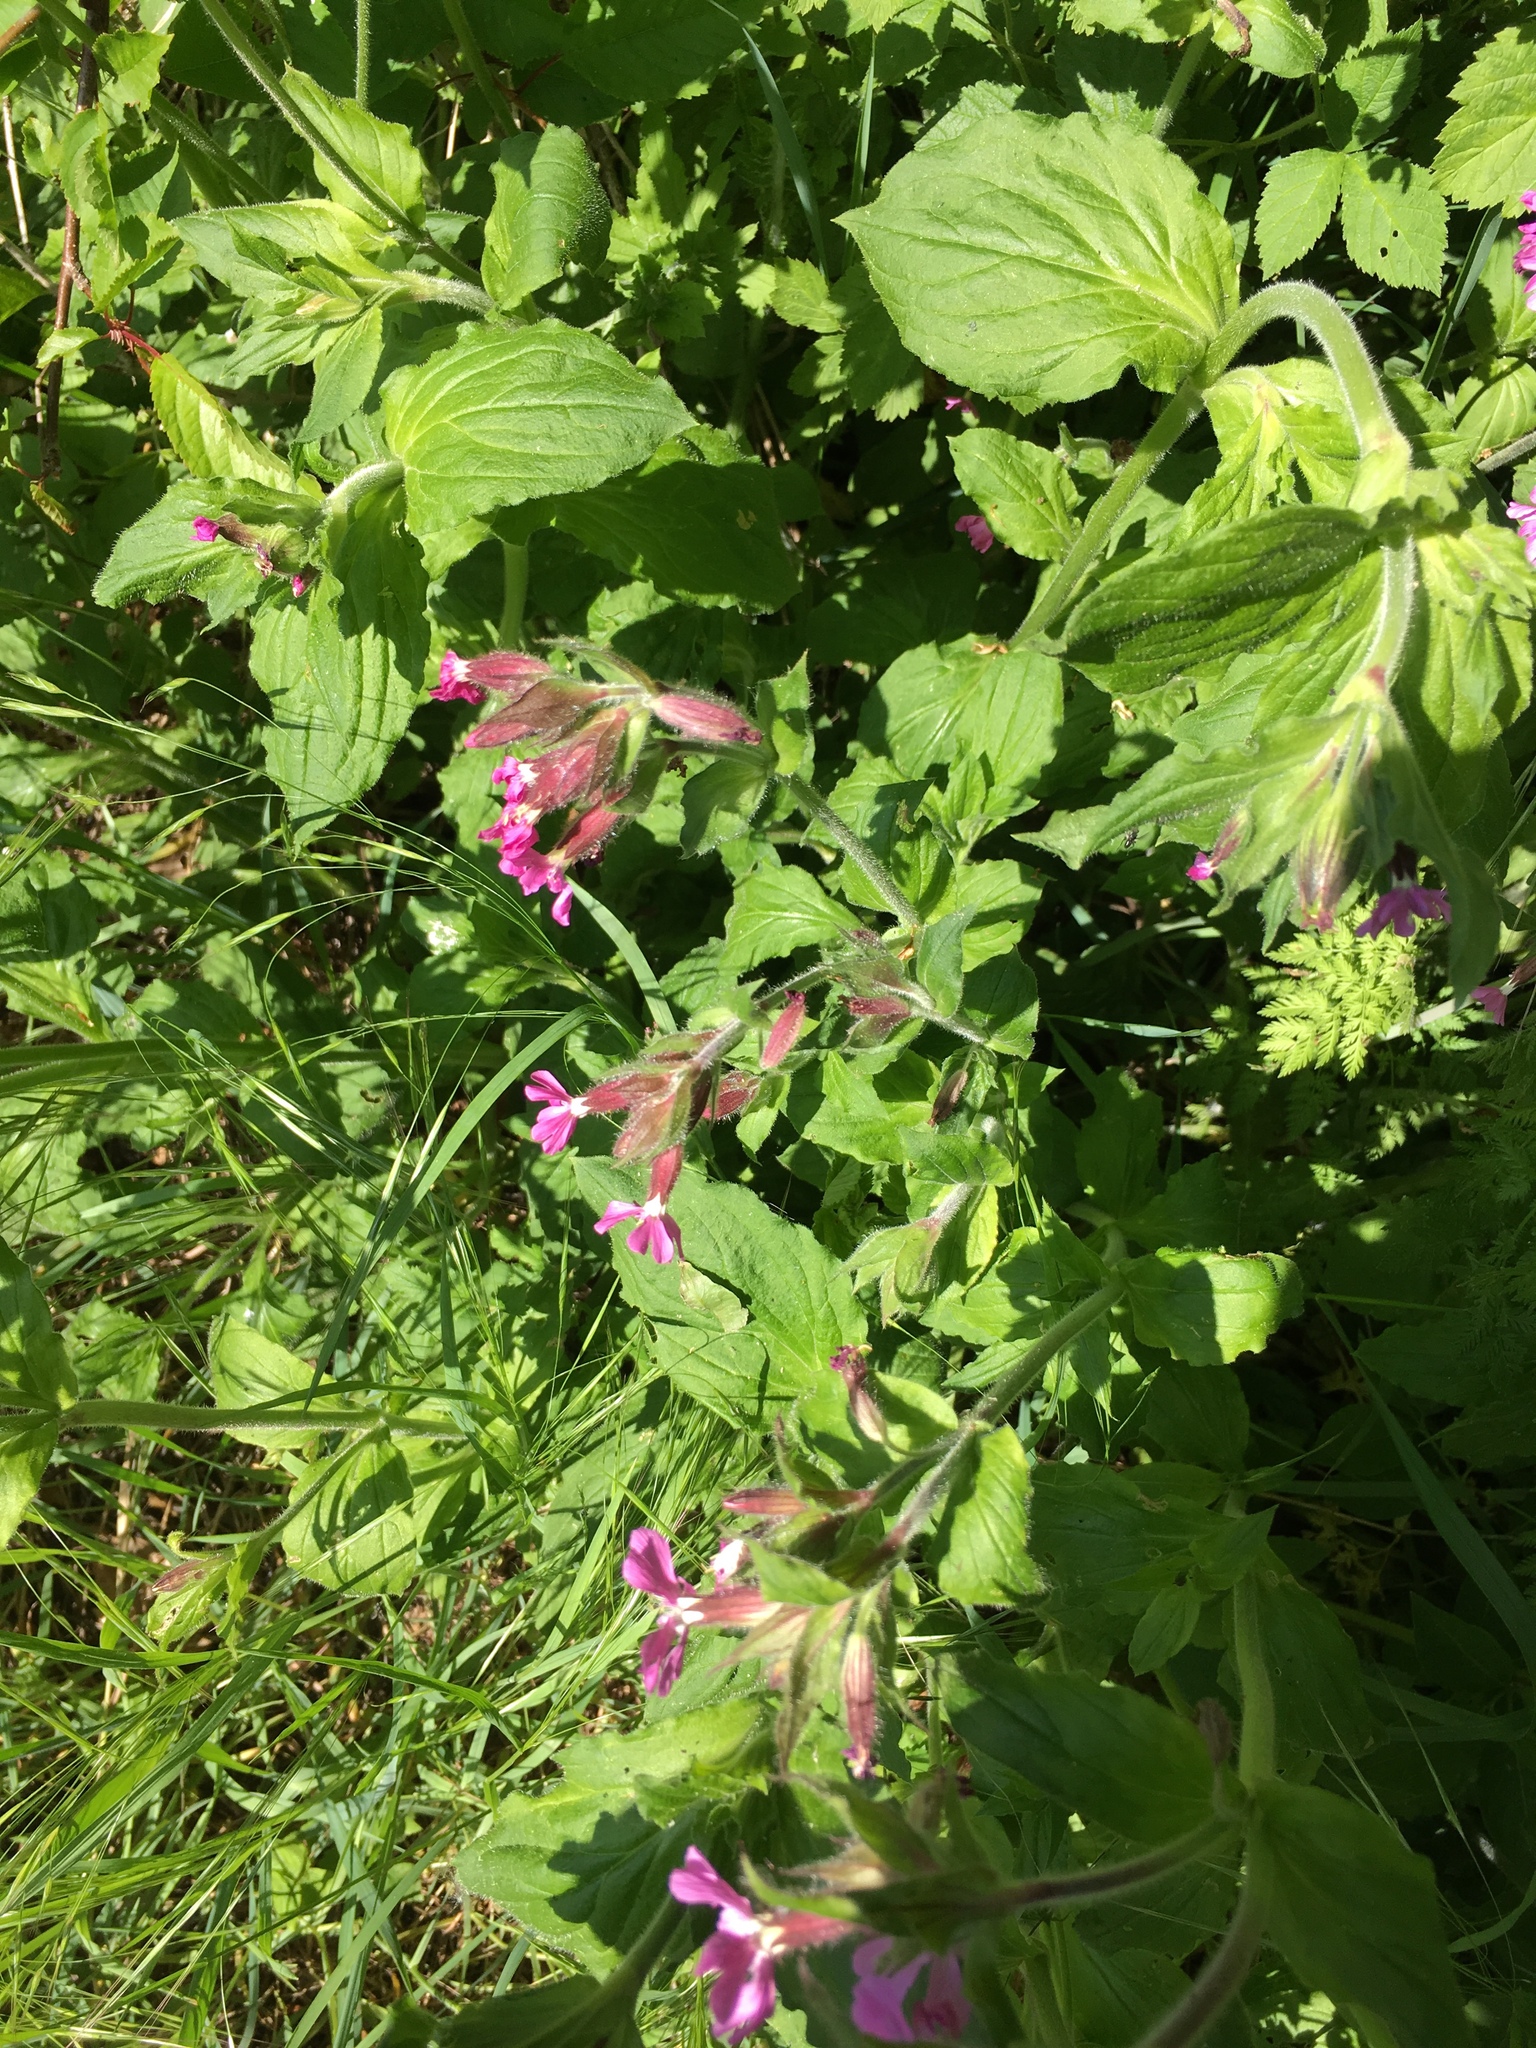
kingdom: Plantae
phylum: Tracheophyta
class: Magnoliopsida
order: Caryophyllales
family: Caryophyllaceae
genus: Silene
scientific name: Silene dioica
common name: Red campion
